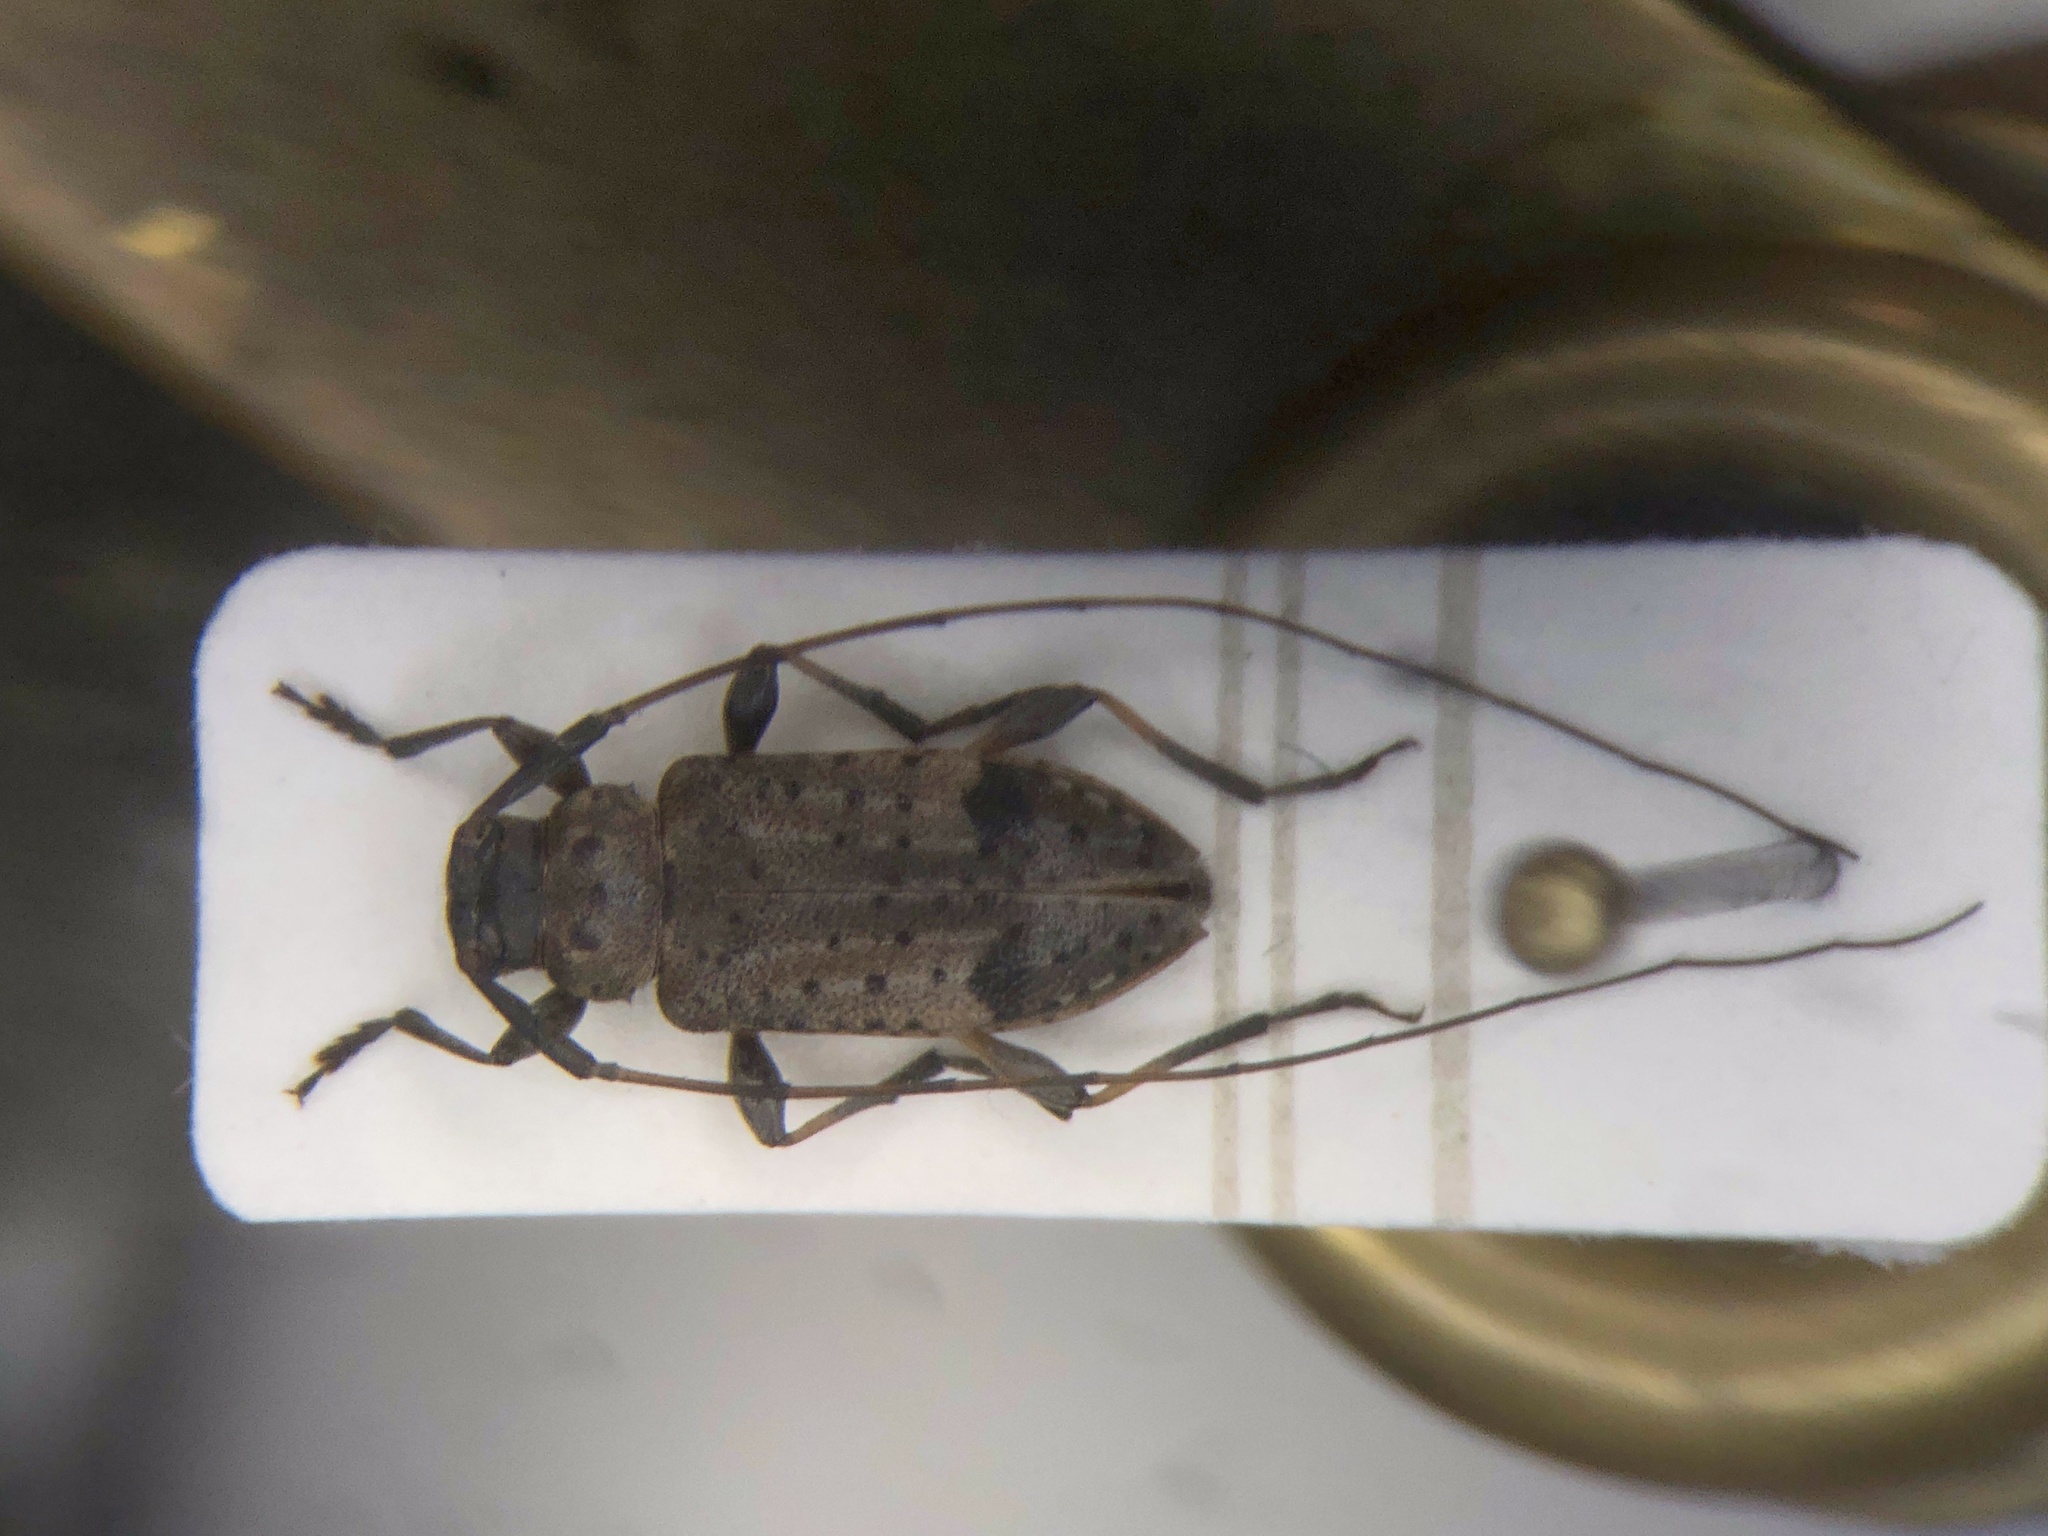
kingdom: Animalia
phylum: Arthropoda
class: Insecta
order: Coleoptera
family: Cerambycidae
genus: Hyperplatys
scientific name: Hyperplatys maculata
